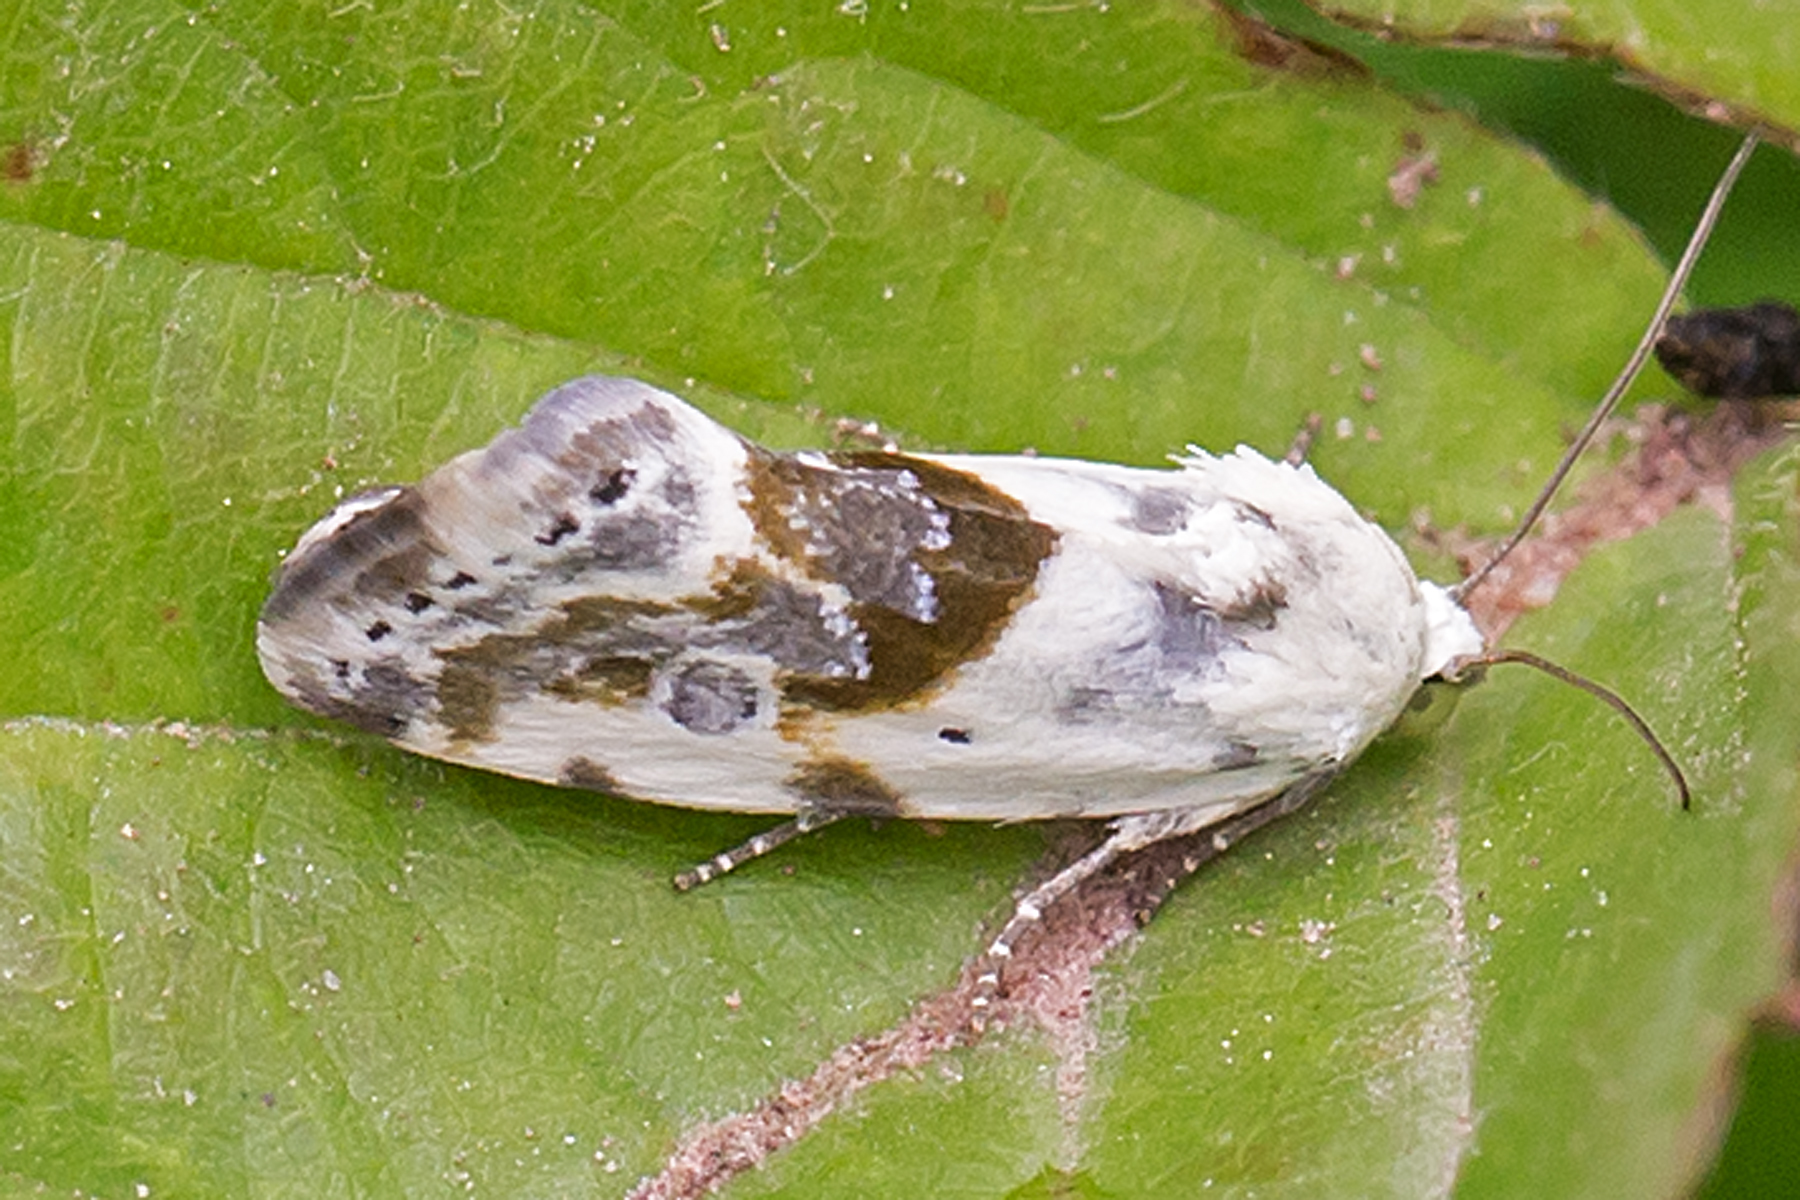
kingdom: Animalia
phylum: Arthropoda
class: Insecta
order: Lepidoptera
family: Noctuidae
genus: Acontia
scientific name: Acontia candefacta
